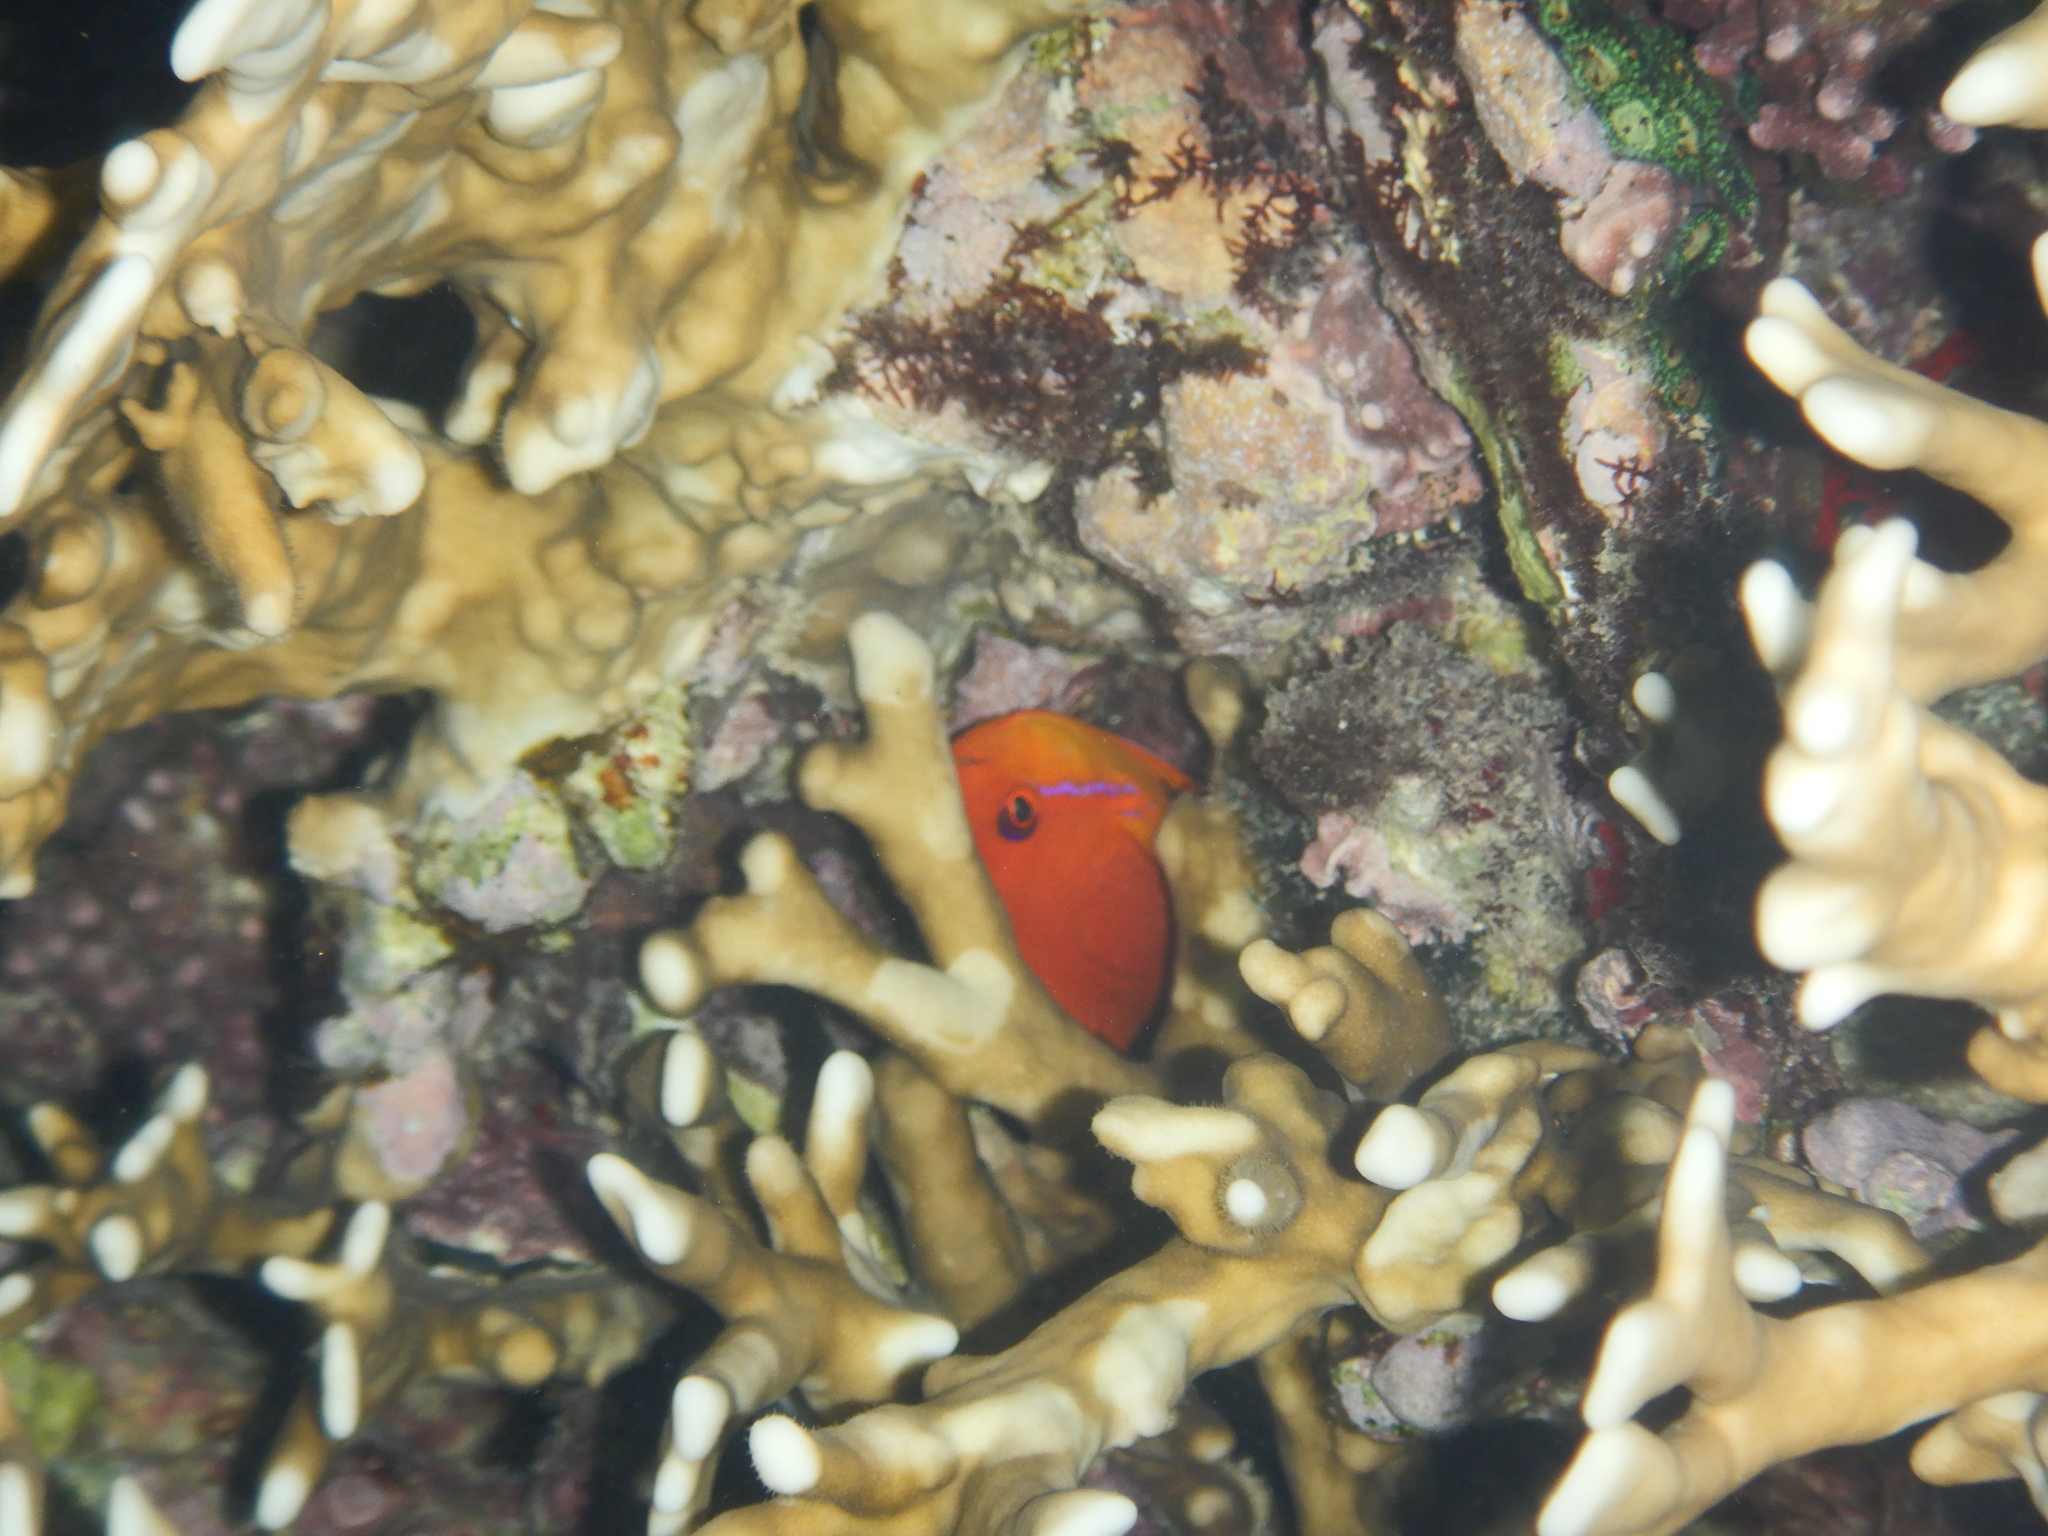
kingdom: Animalia
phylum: Chordata
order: Perciformes
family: Serranidae
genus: Pseudanthias
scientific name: Pseudanthias squamipinnis
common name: Scalefin anthias
